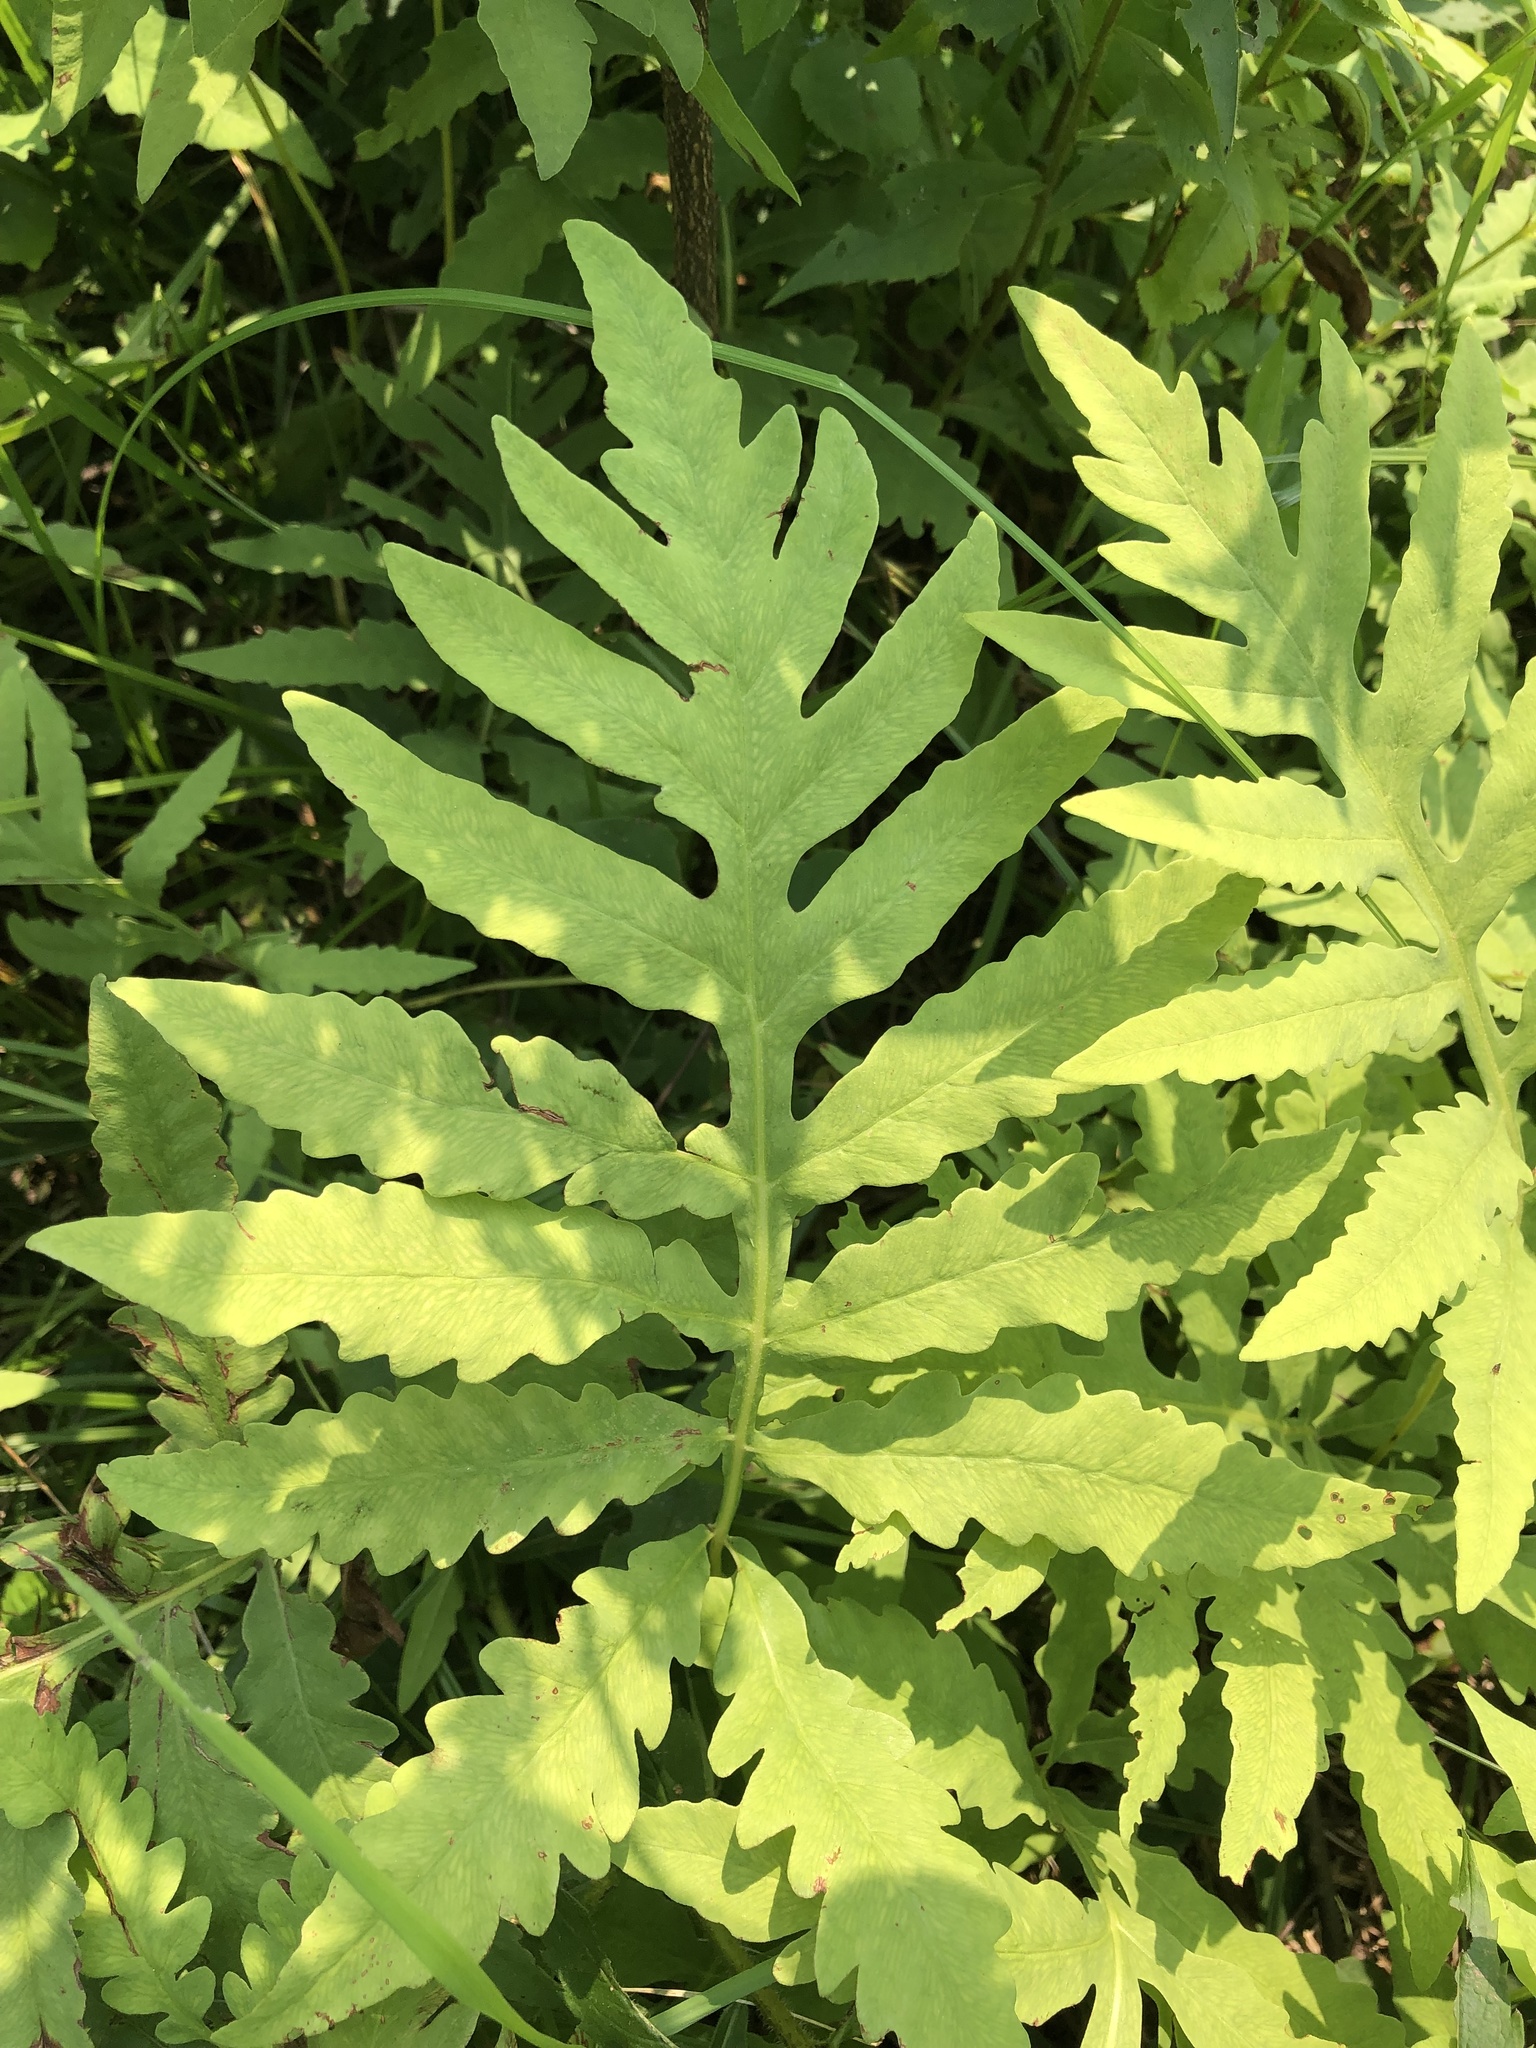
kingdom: Plantae
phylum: Tracheophyta
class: Polypodiopsida
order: Polypodiales
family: Onocleaceae
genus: Onoclea
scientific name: Onoclea sensibilis
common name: Sensitive fern
